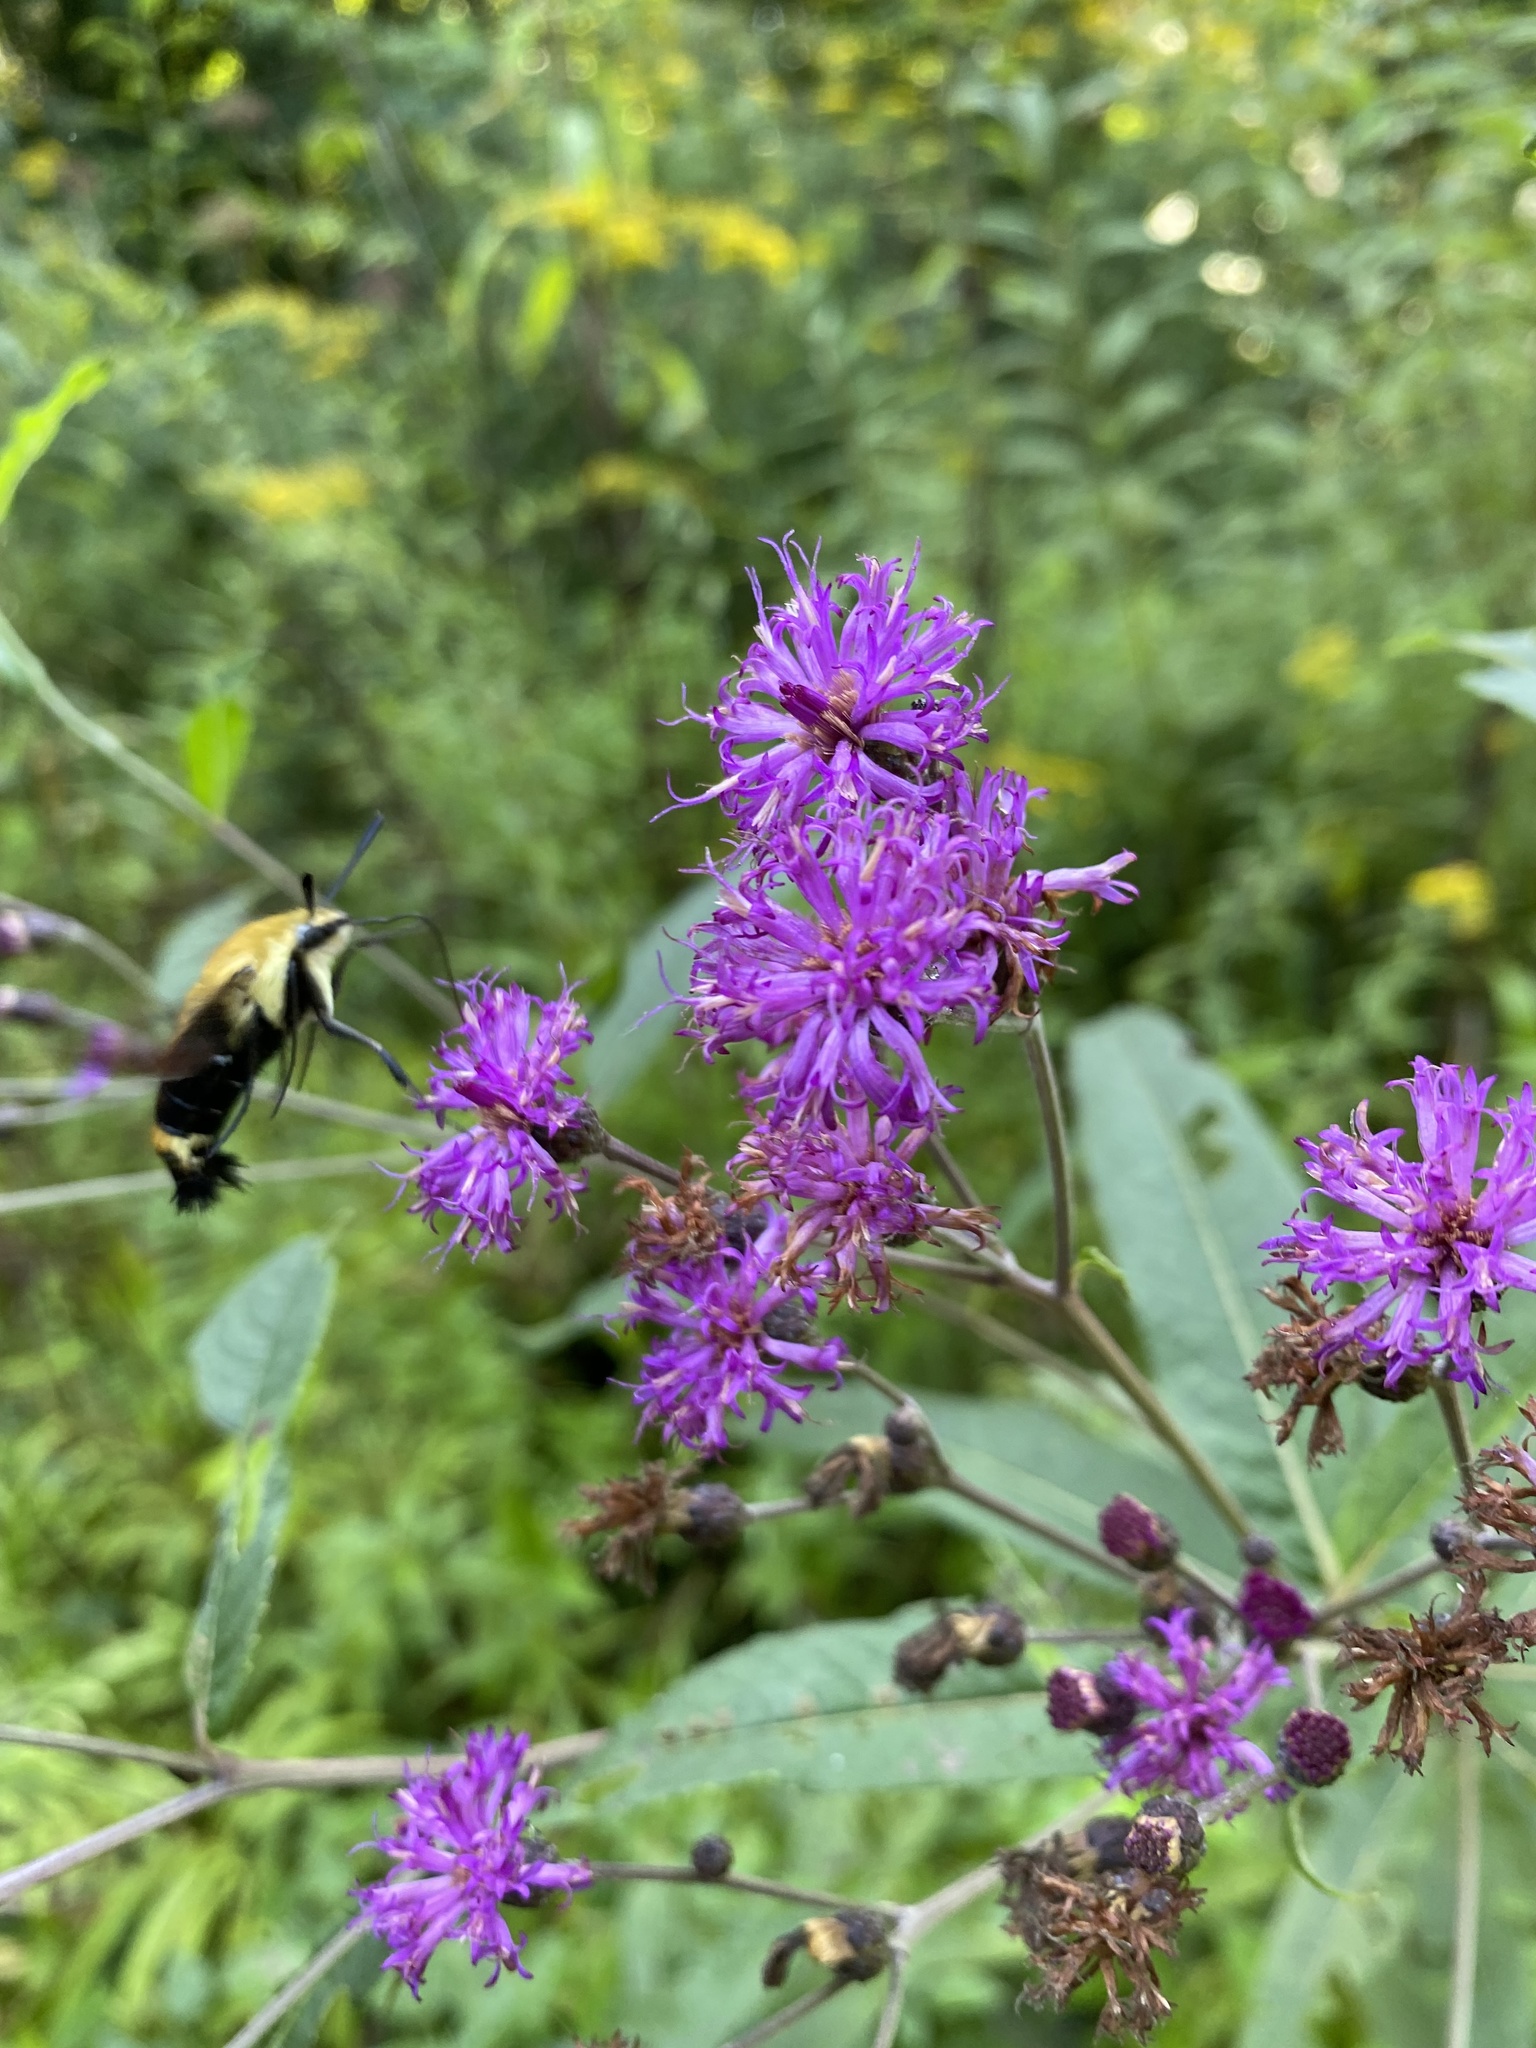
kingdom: Animalia
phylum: Arthropoda
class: Insecta
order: Lepidoptera
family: Sphingidae
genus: Hemaris
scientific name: Hemaris diffinis
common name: Bumblebee moth
